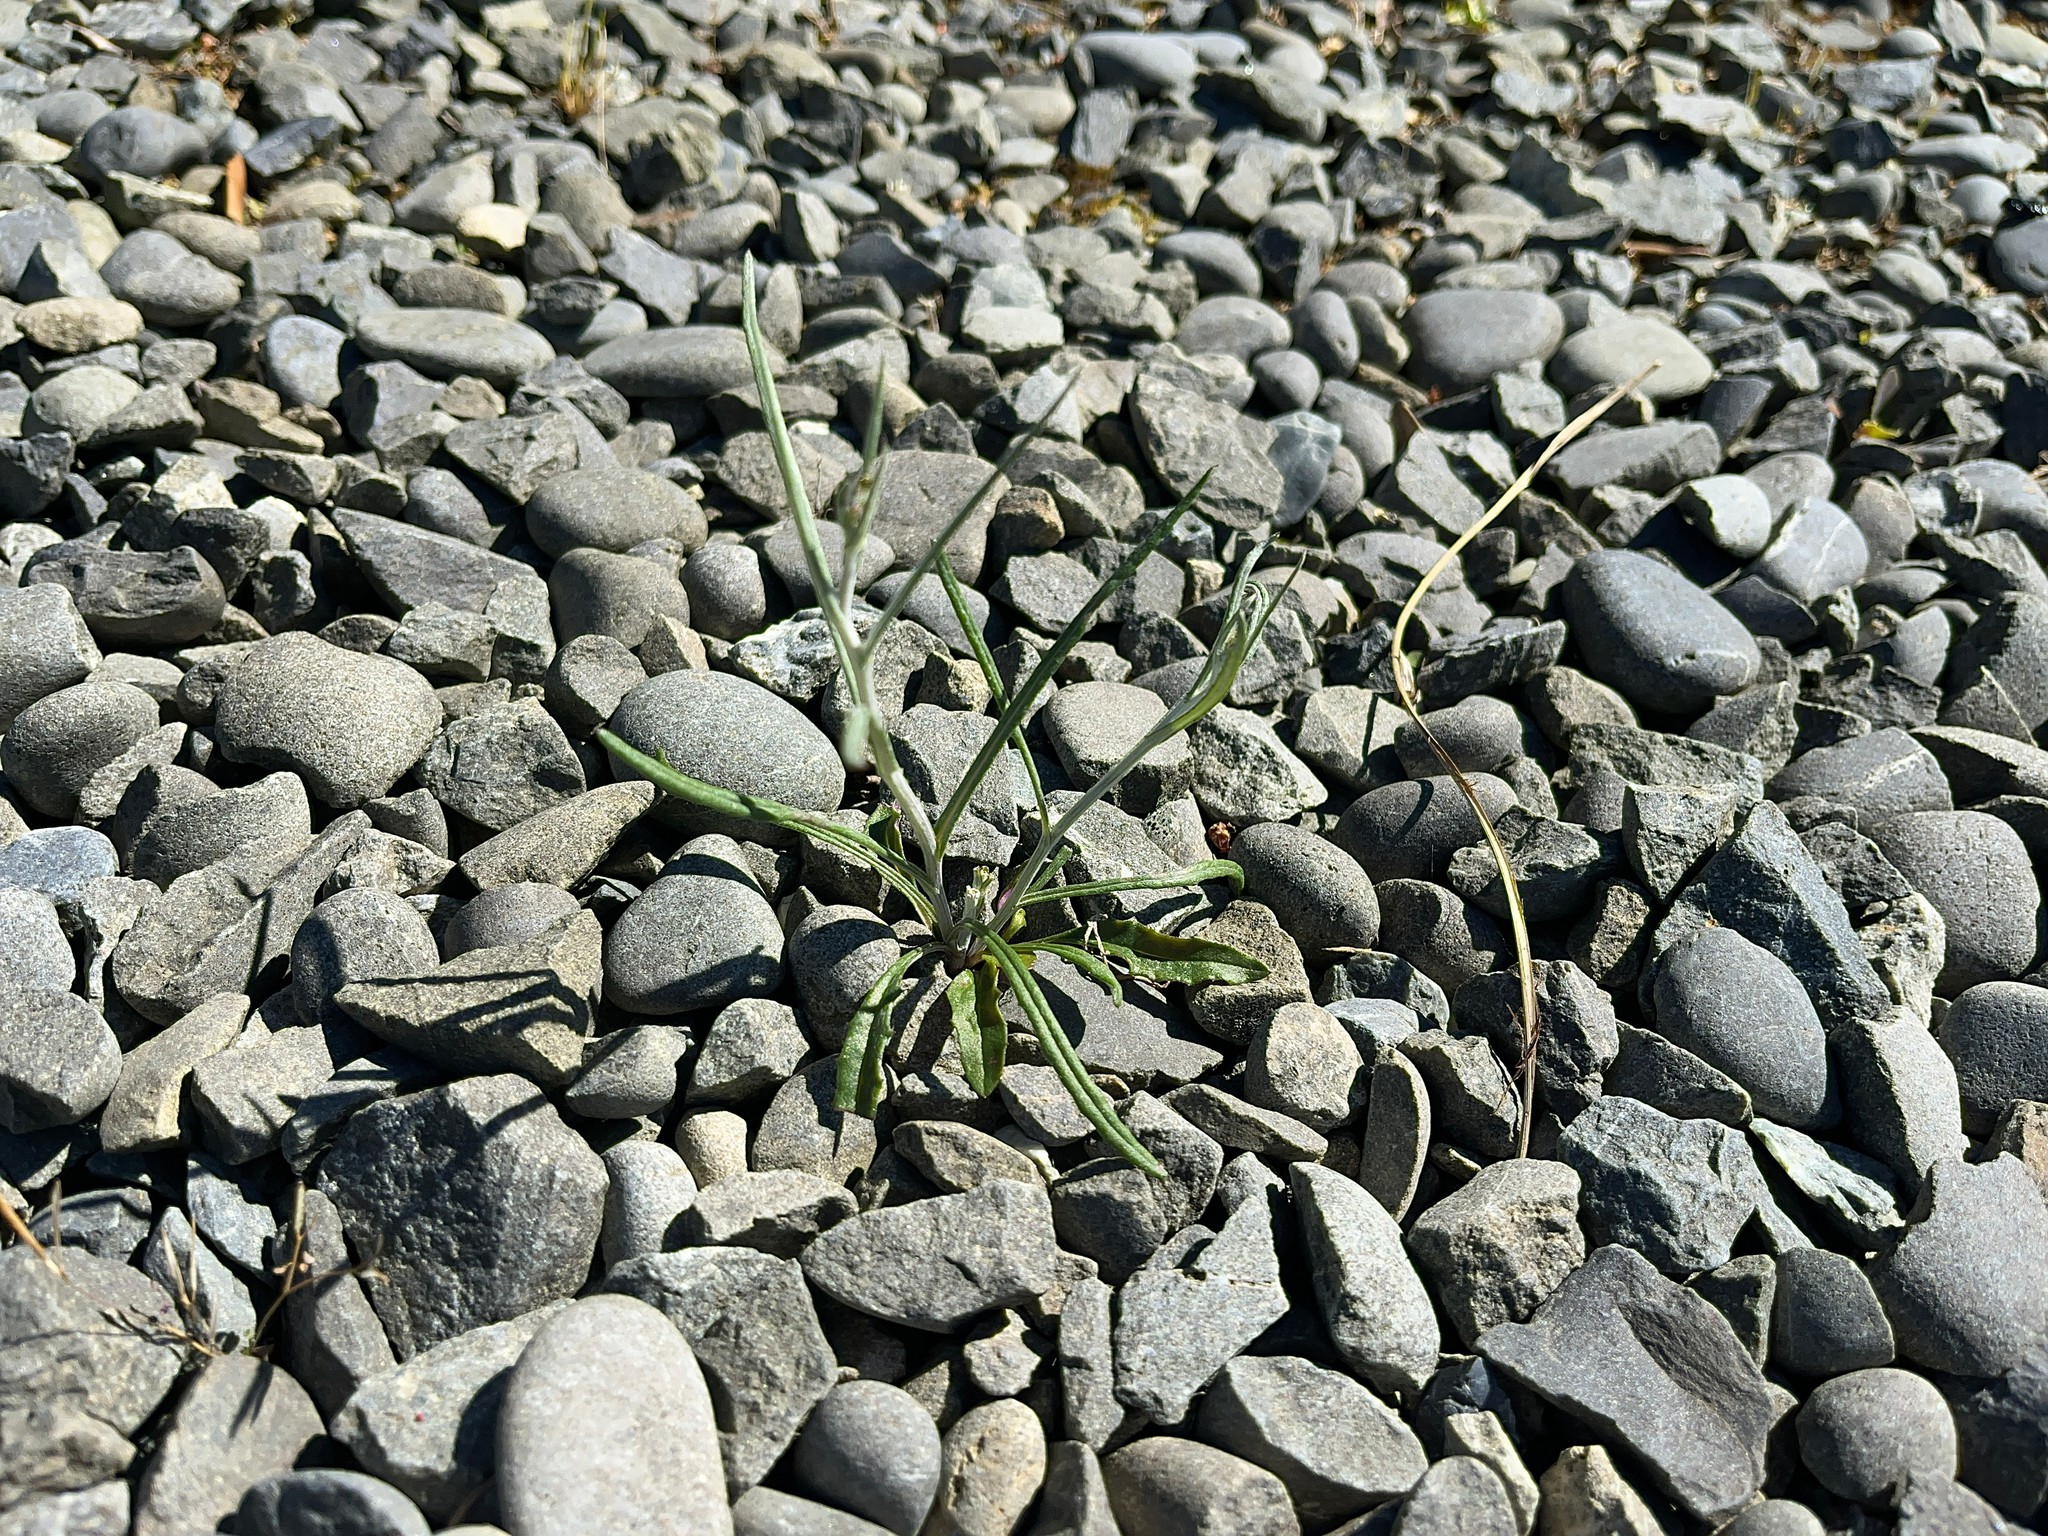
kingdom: Plantae
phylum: Tracheophyta
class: Magnoliopsida
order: Asterales
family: Asteraceae
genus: Senecio
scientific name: Senecio quadridentatus
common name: Cotton fireweed
